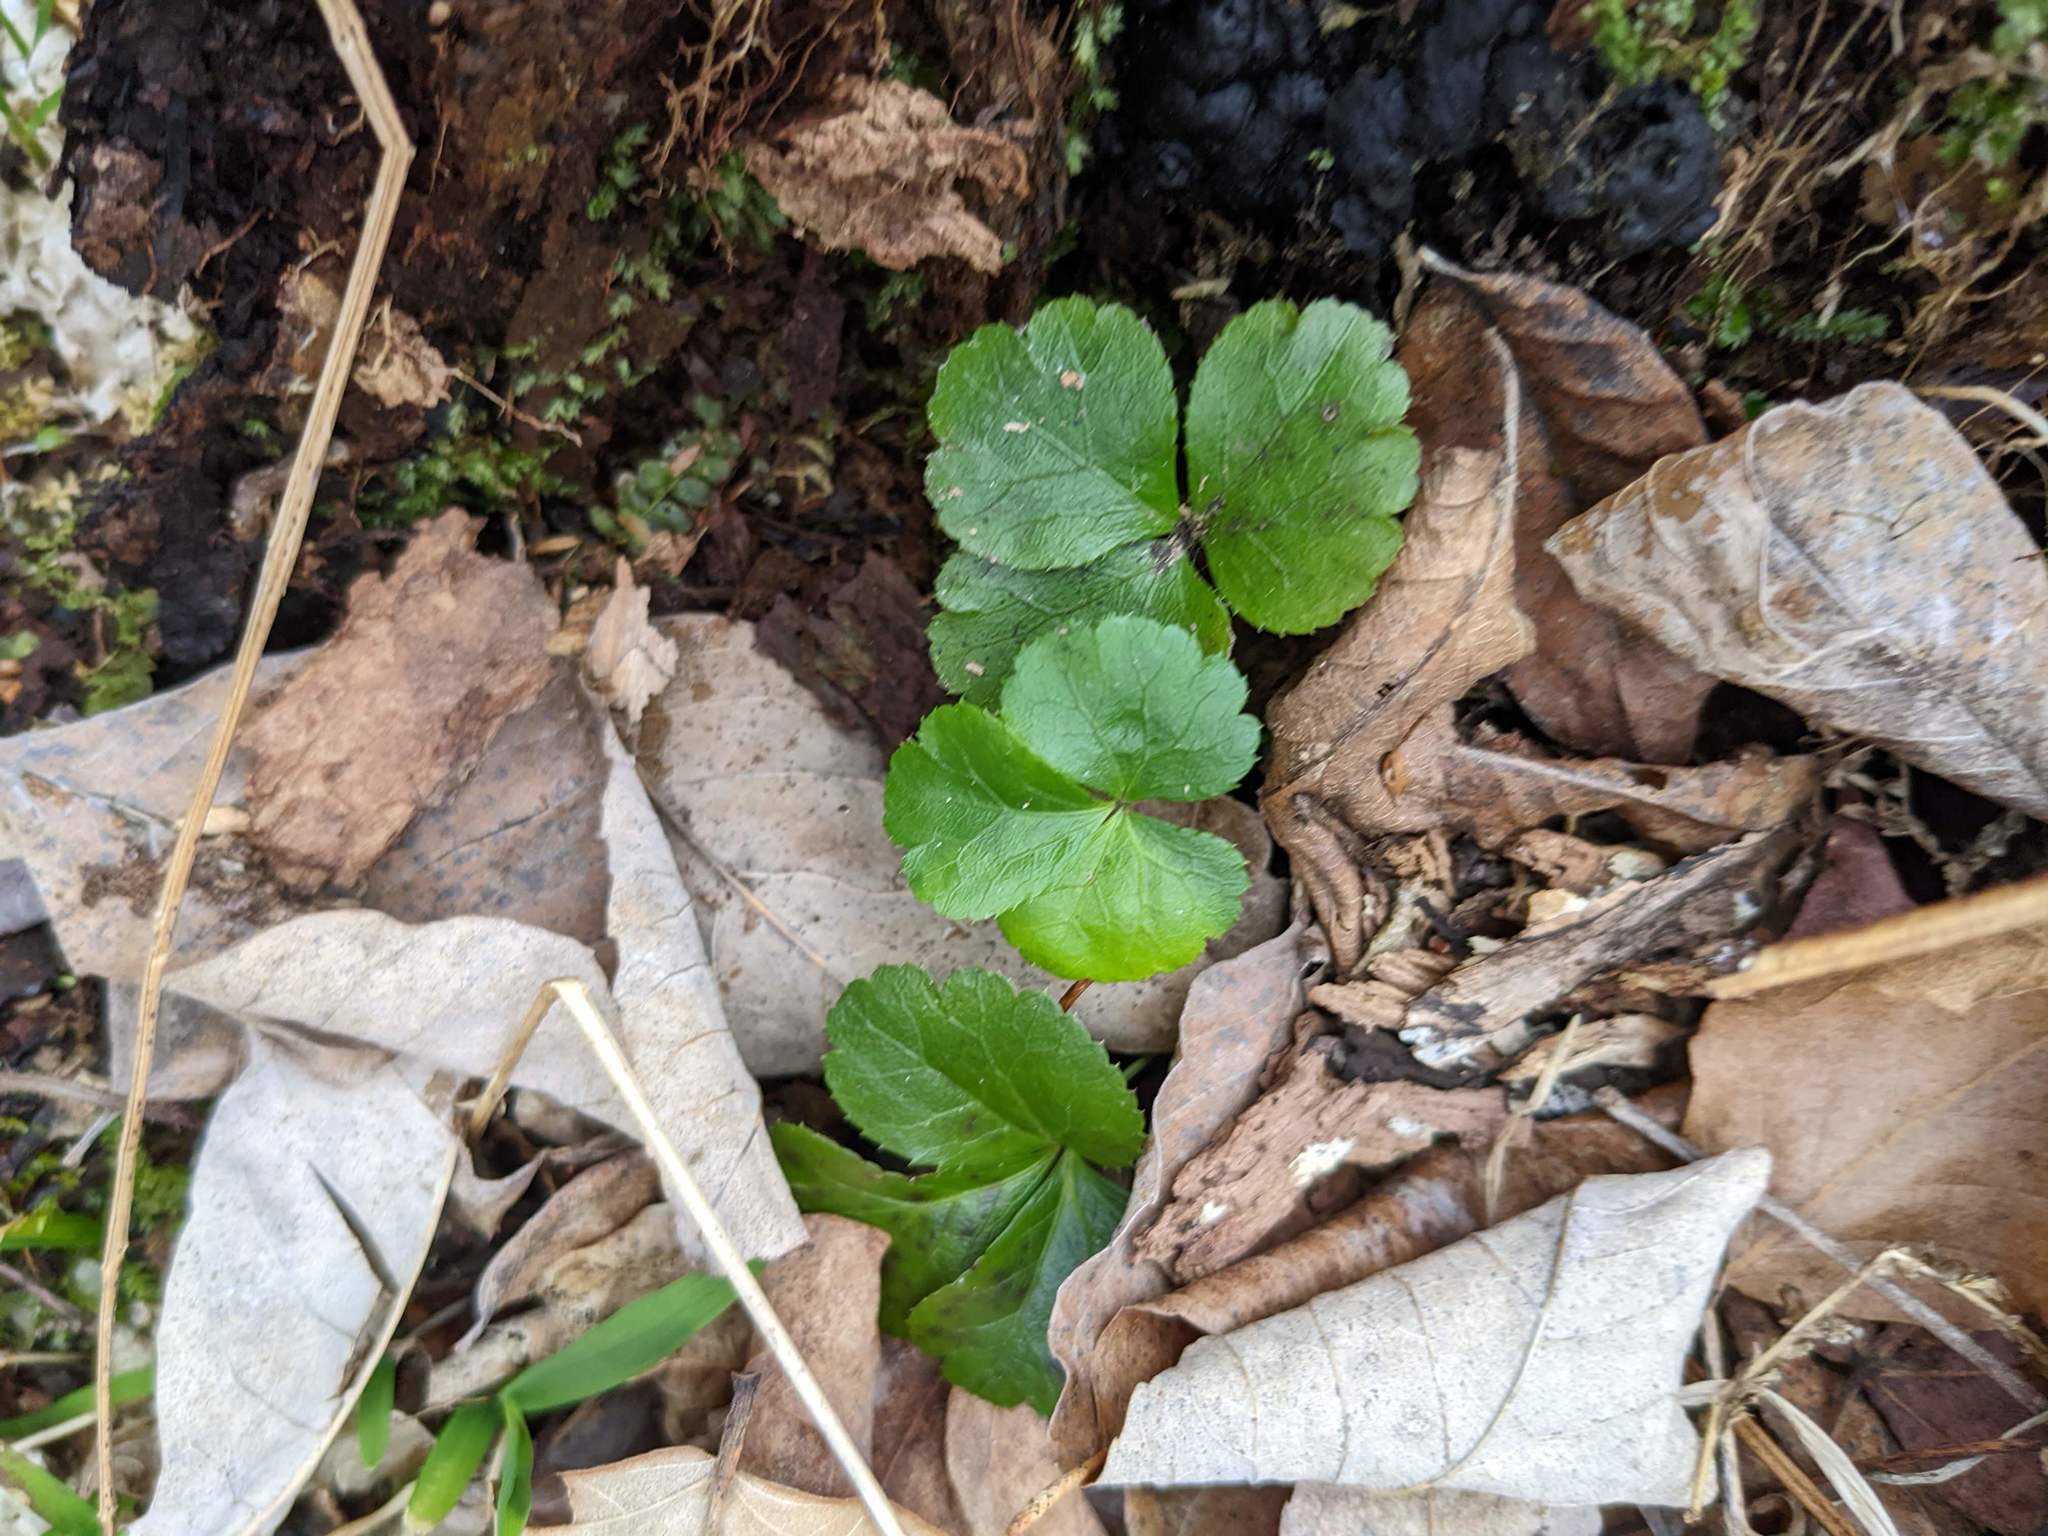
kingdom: Plantae
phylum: Tracheophyta
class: Magnoliopsida
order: Ranunculales
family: Ranunculaceae
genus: Coptis
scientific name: Coptis trifolia
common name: Canker-root
